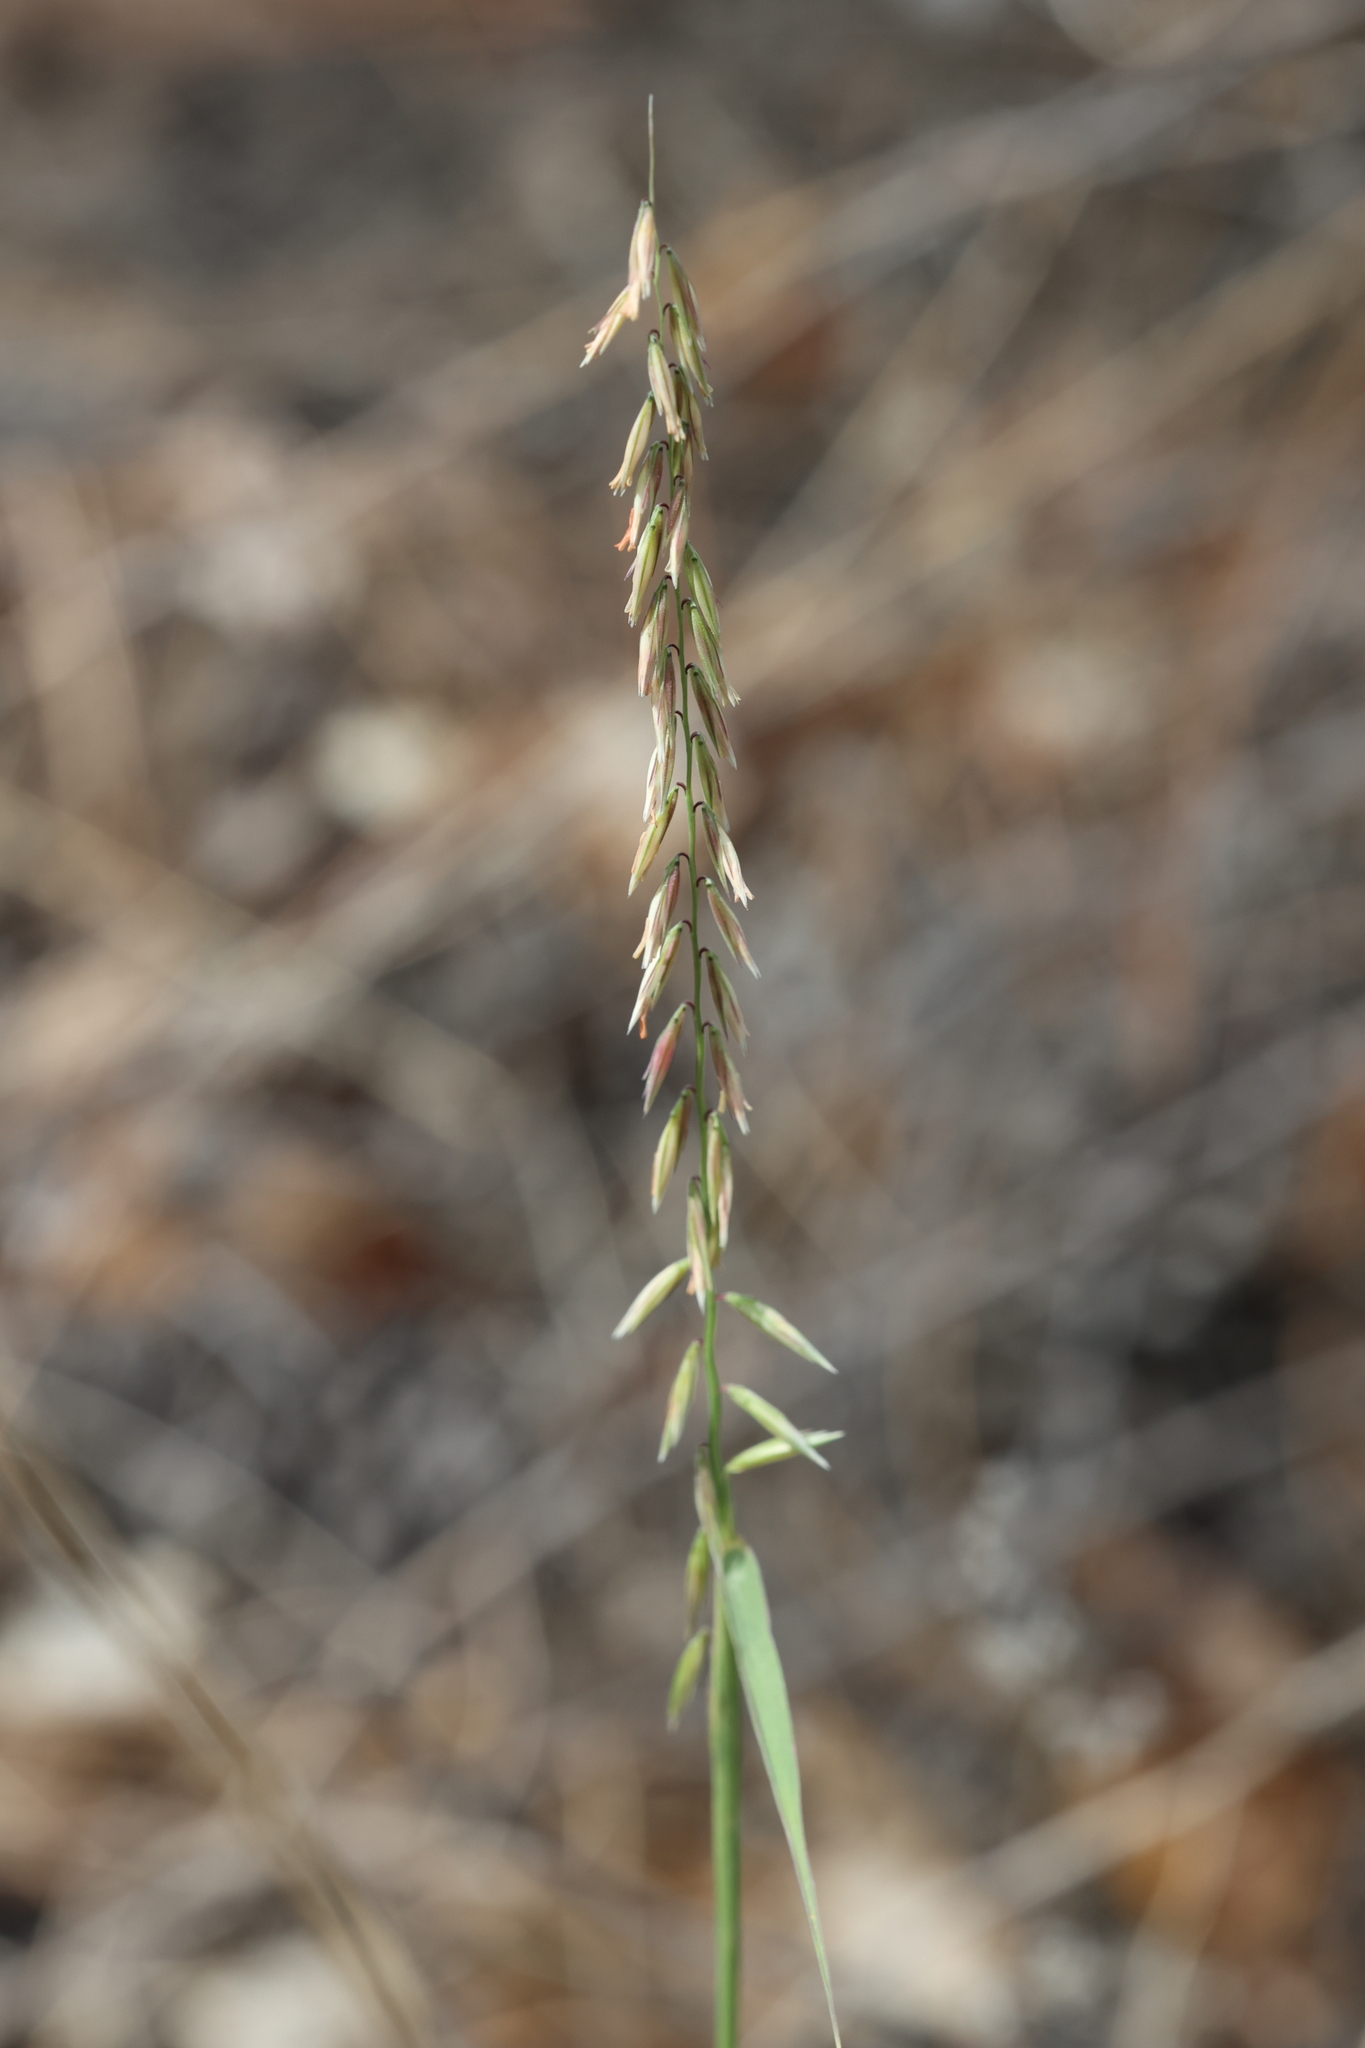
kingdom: Plantae
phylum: Tracheophyta
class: Liliopsida
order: Poales
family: Poaceae
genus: Bouteloua
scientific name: Bouteloua curtipendula
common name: Side-oats grama
